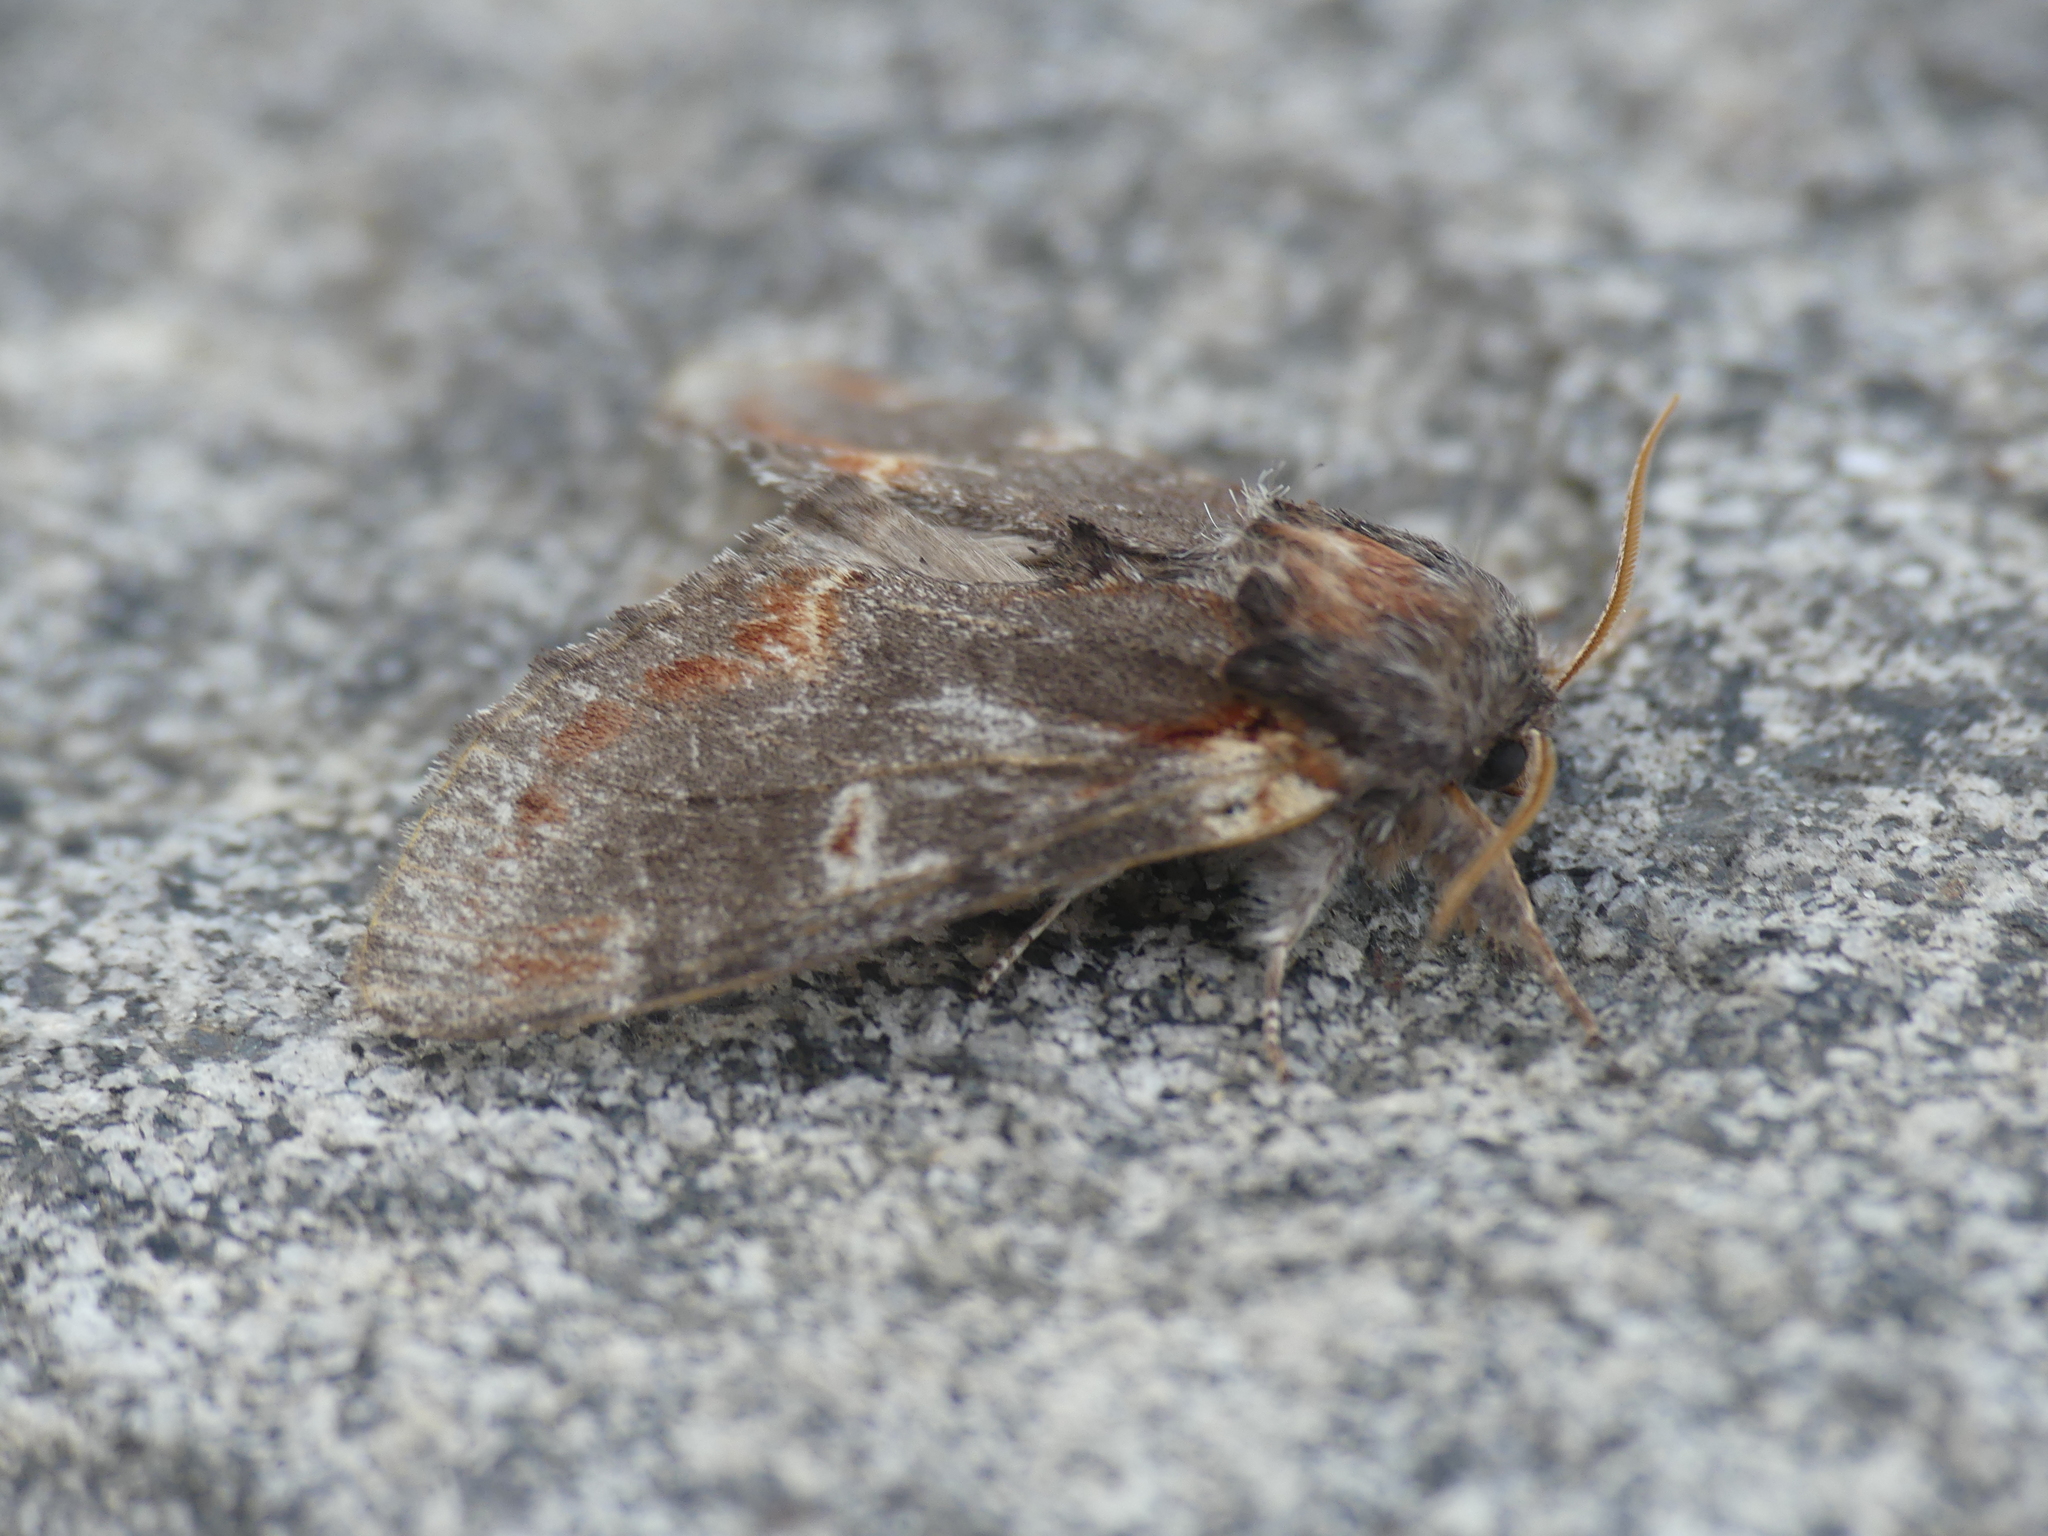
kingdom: Animalia
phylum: Arthropoda
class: Insecta
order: Lepidoptera
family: Notodontidae
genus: Notodonta
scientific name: Notodonta dromedarius
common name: Iron prominent
